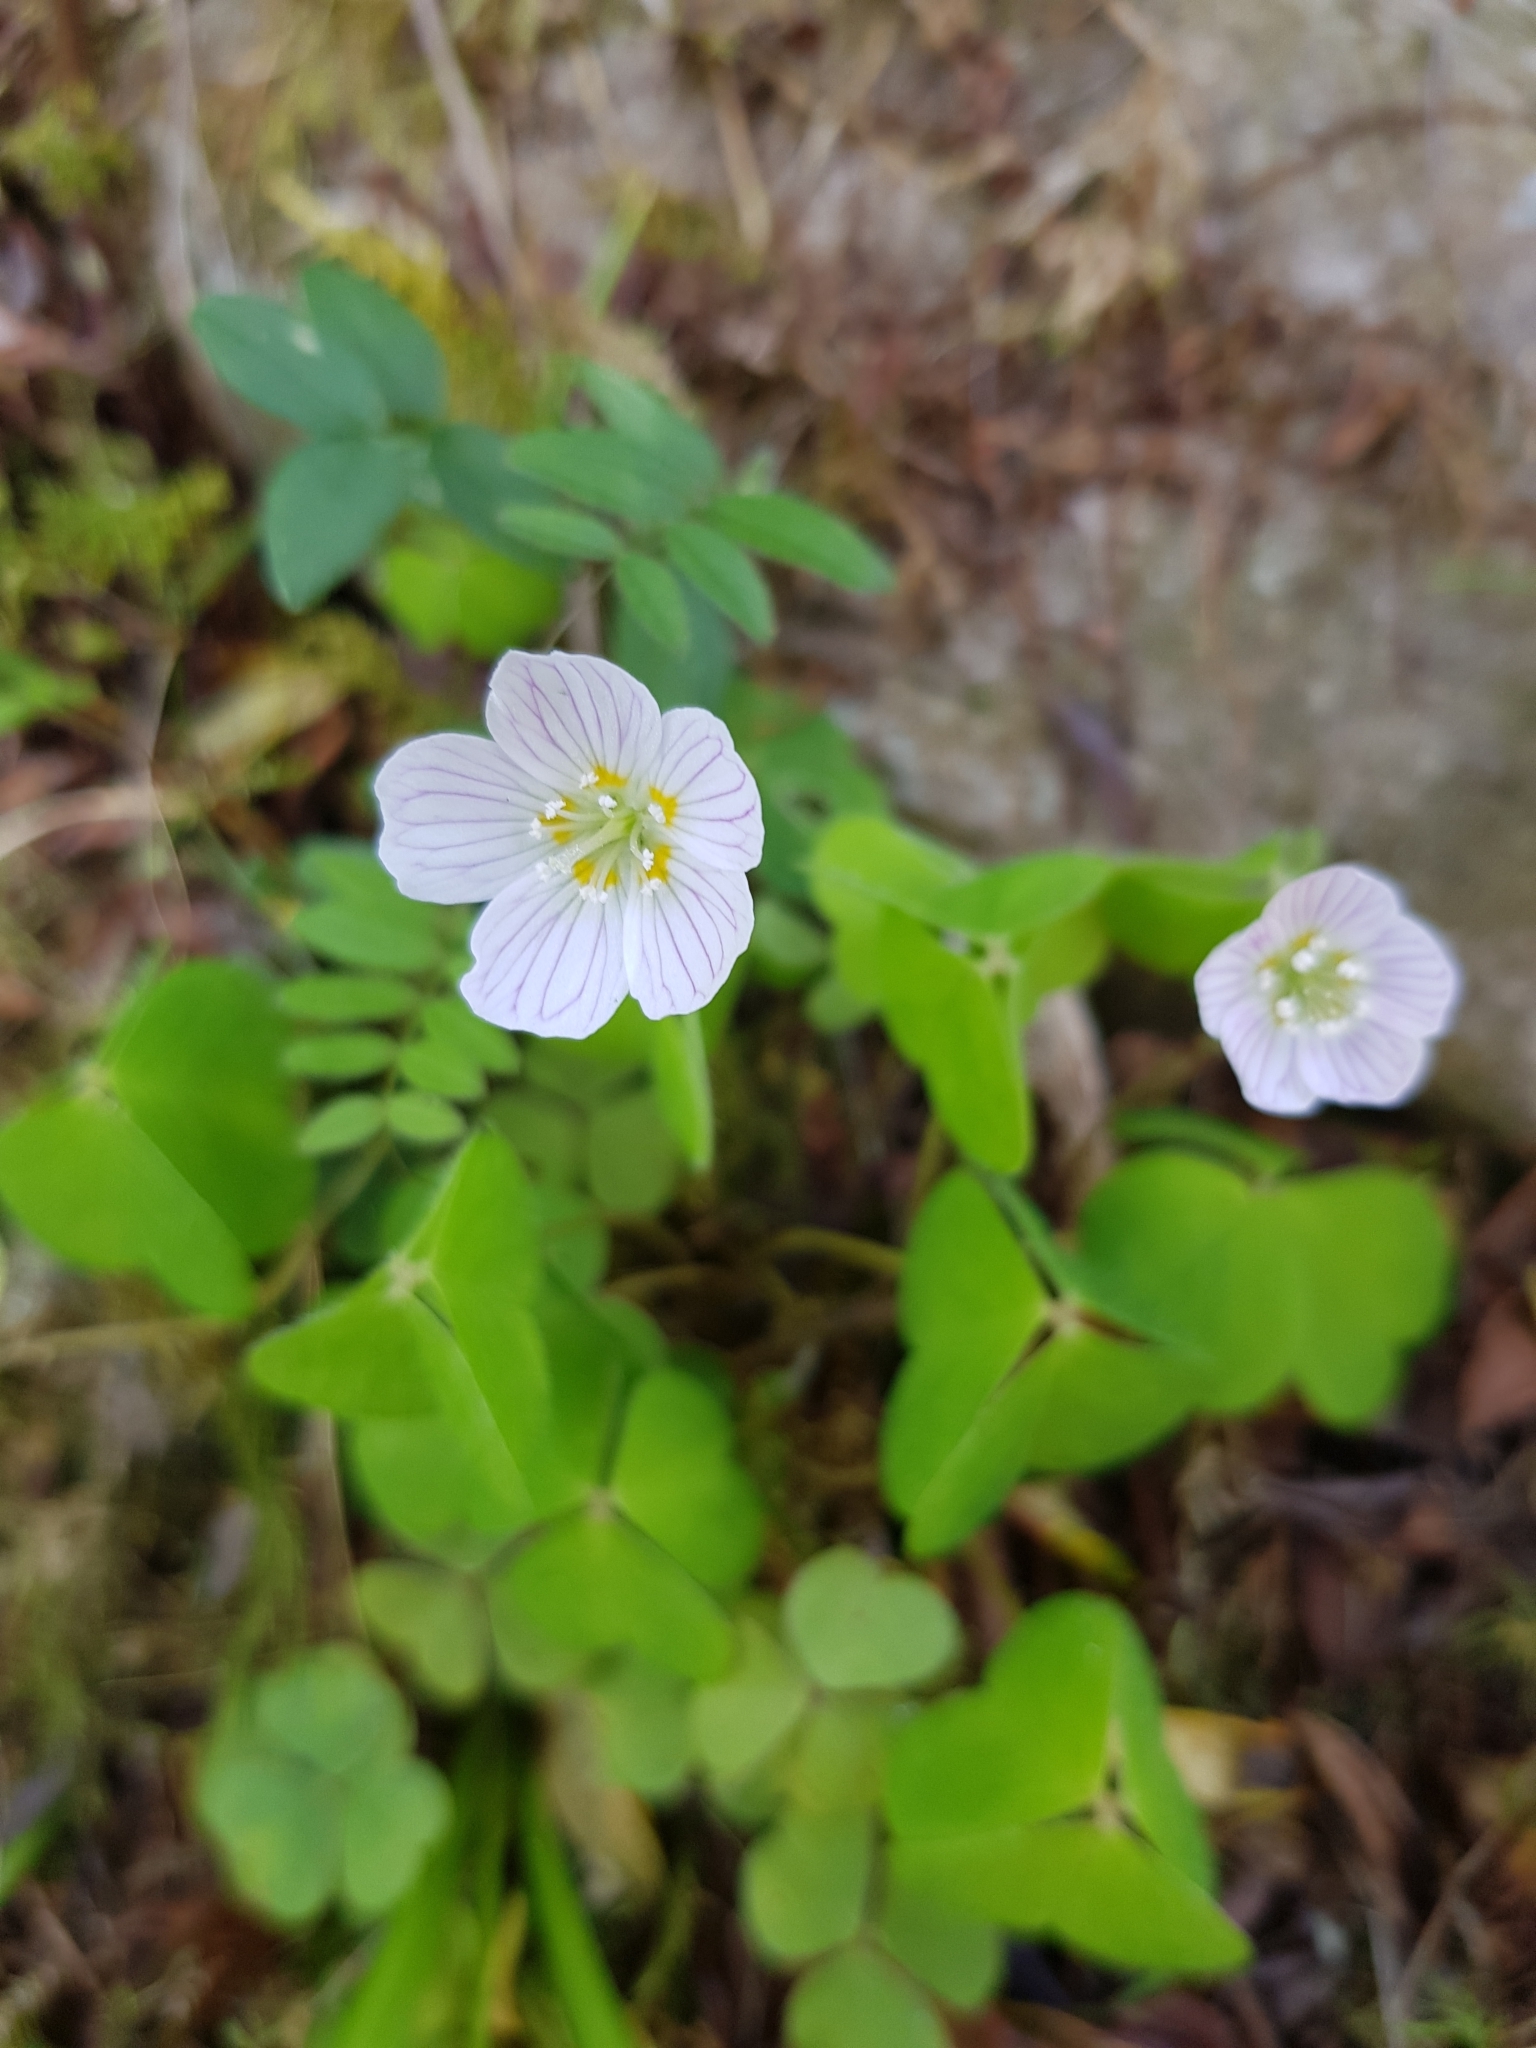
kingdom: Plantae
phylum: Tracheophyta
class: Magnoliopsida
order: Oxalidales
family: Oxalidaceae
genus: Oxalis
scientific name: Oxalis acetosella
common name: Wood-sorrel
